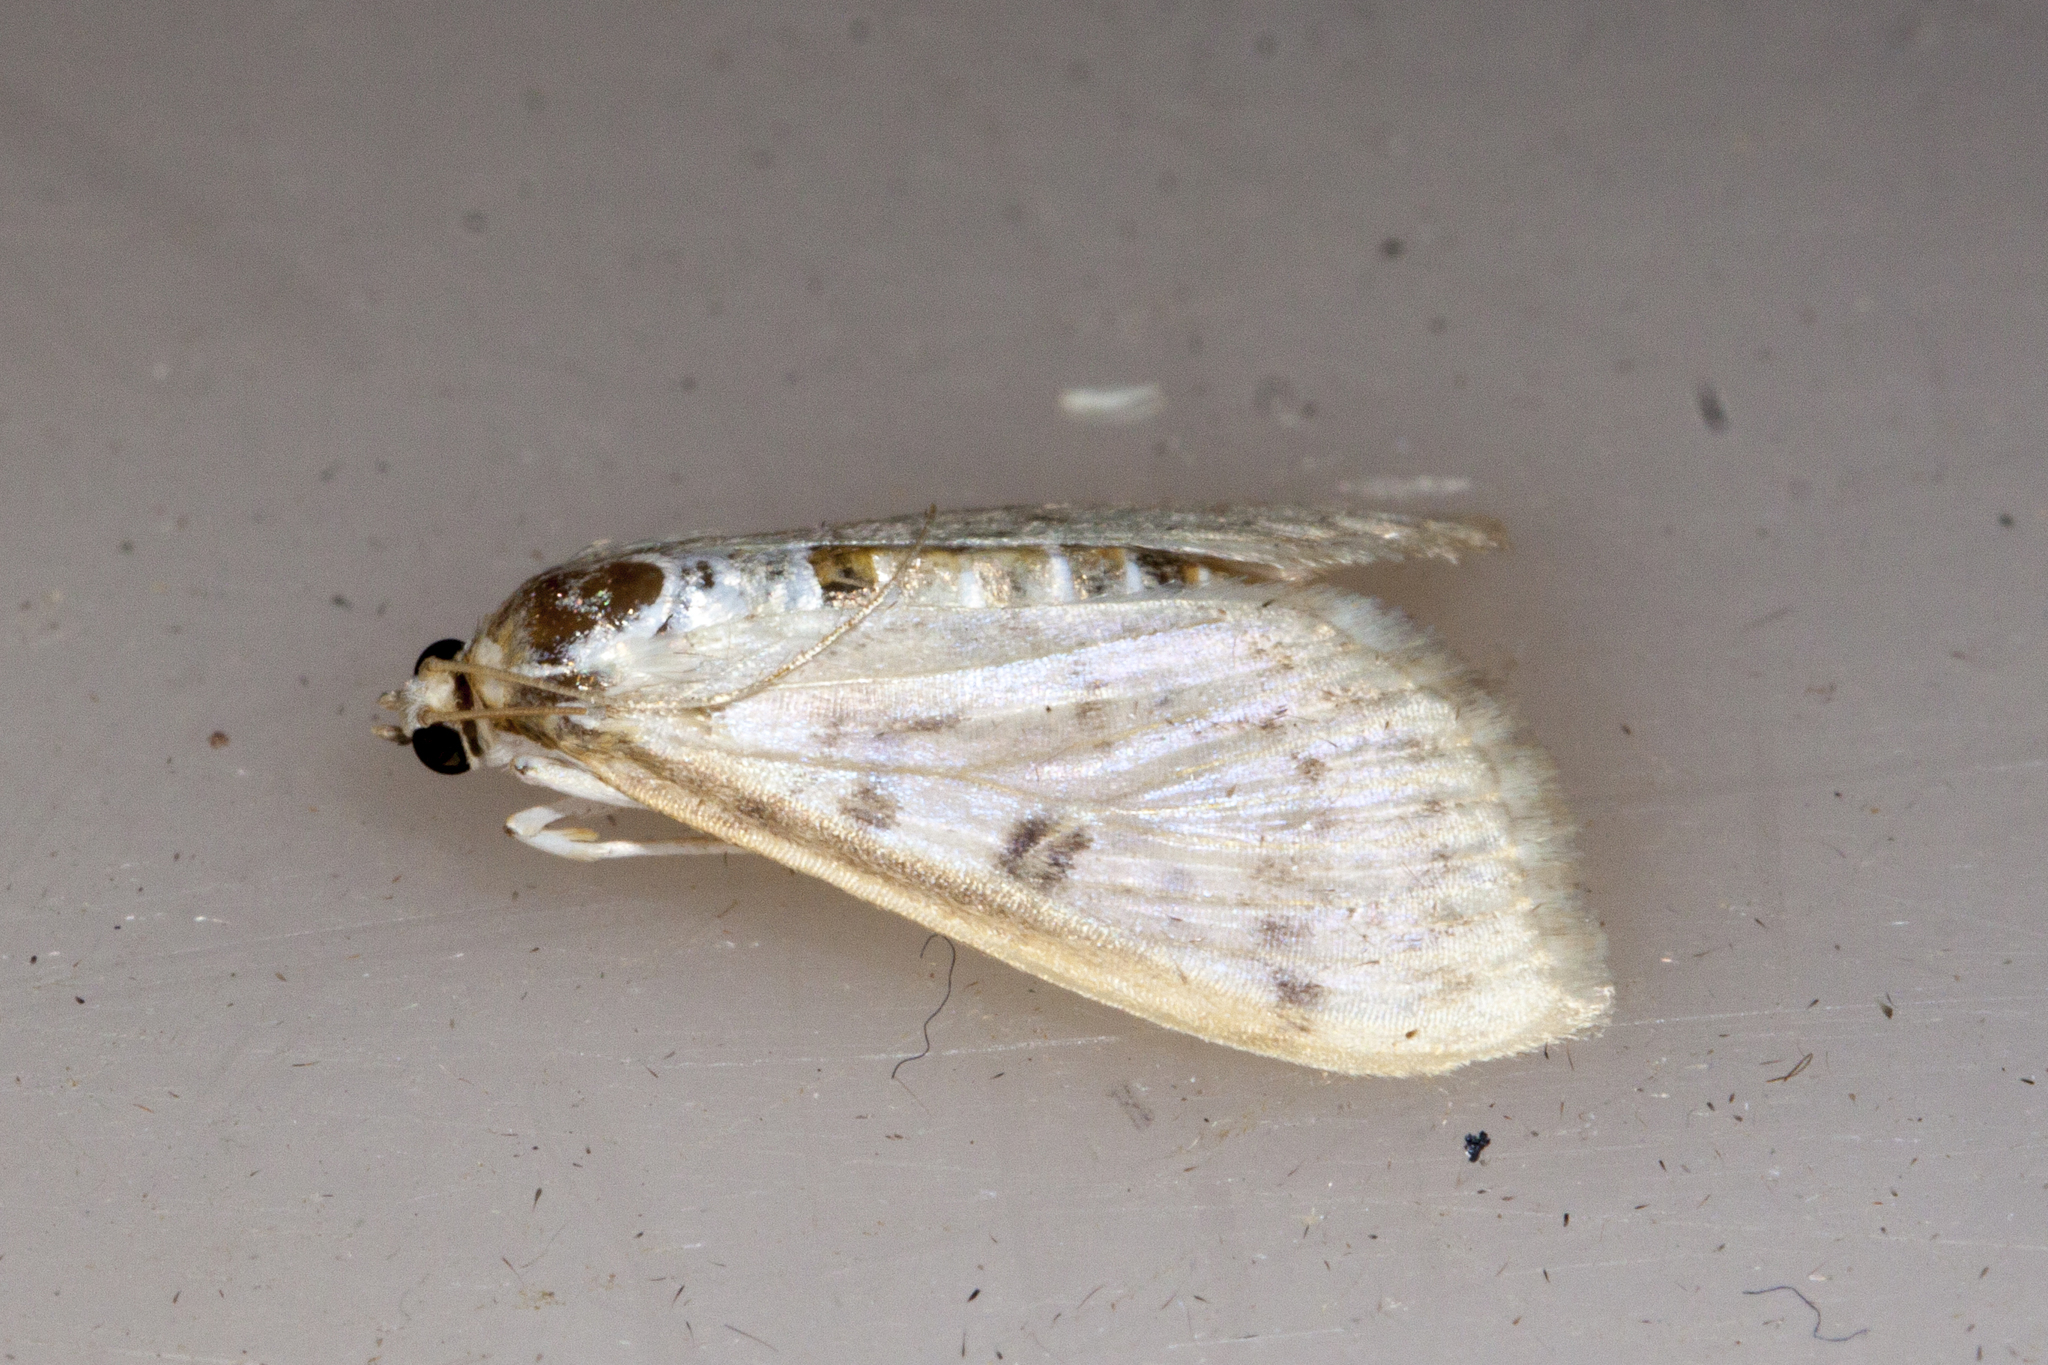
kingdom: Animalia
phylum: Arthropoda
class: Insecta
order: Lepidoptera
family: Crambidae
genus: Herpetogramma
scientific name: Herpetogramma
